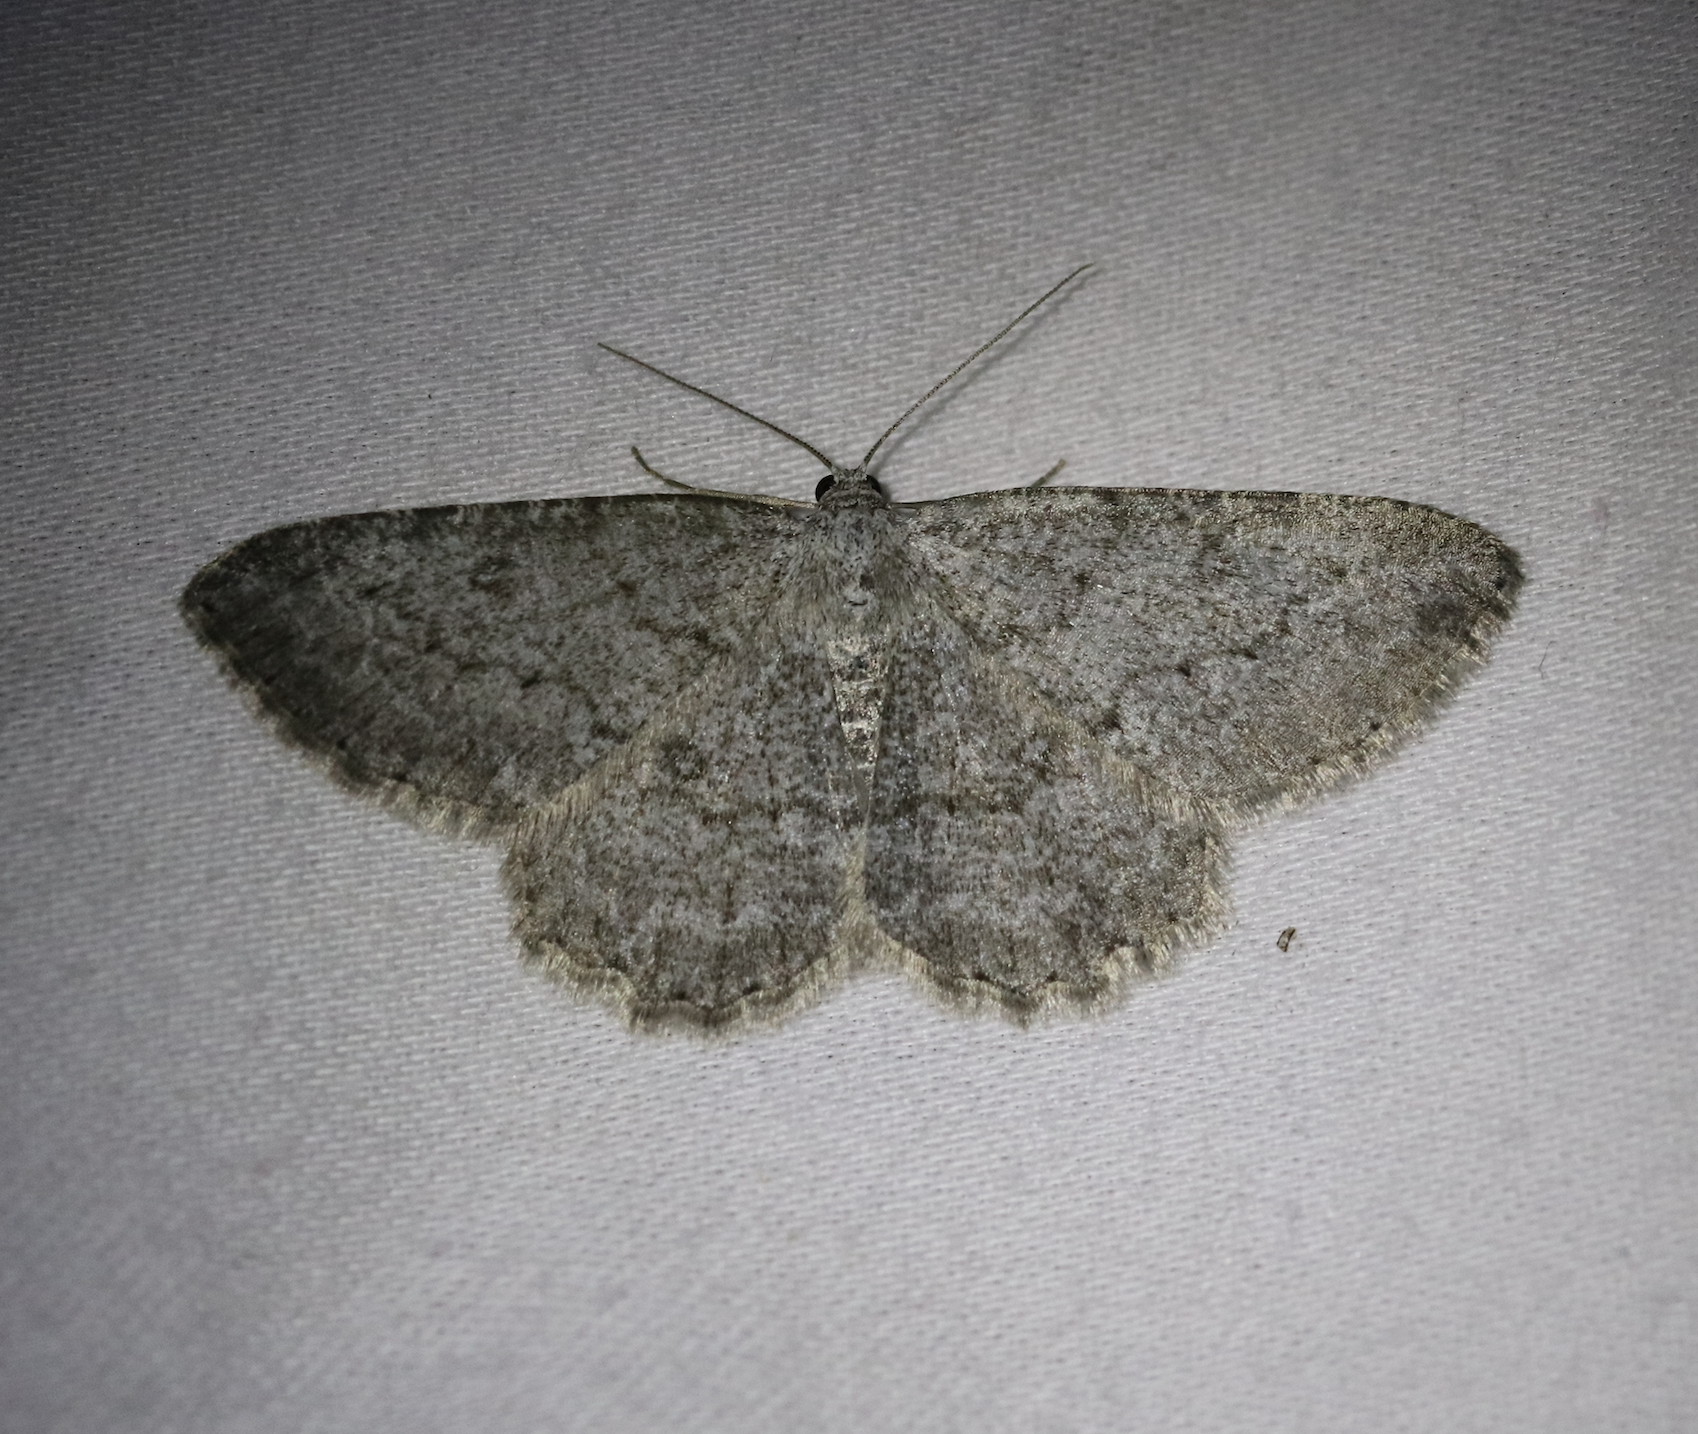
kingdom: Animalia
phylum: Arthropoda
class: Insecta
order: Lepidoptera
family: Geometridae
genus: Charissa
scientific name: Charissa ambiguata
